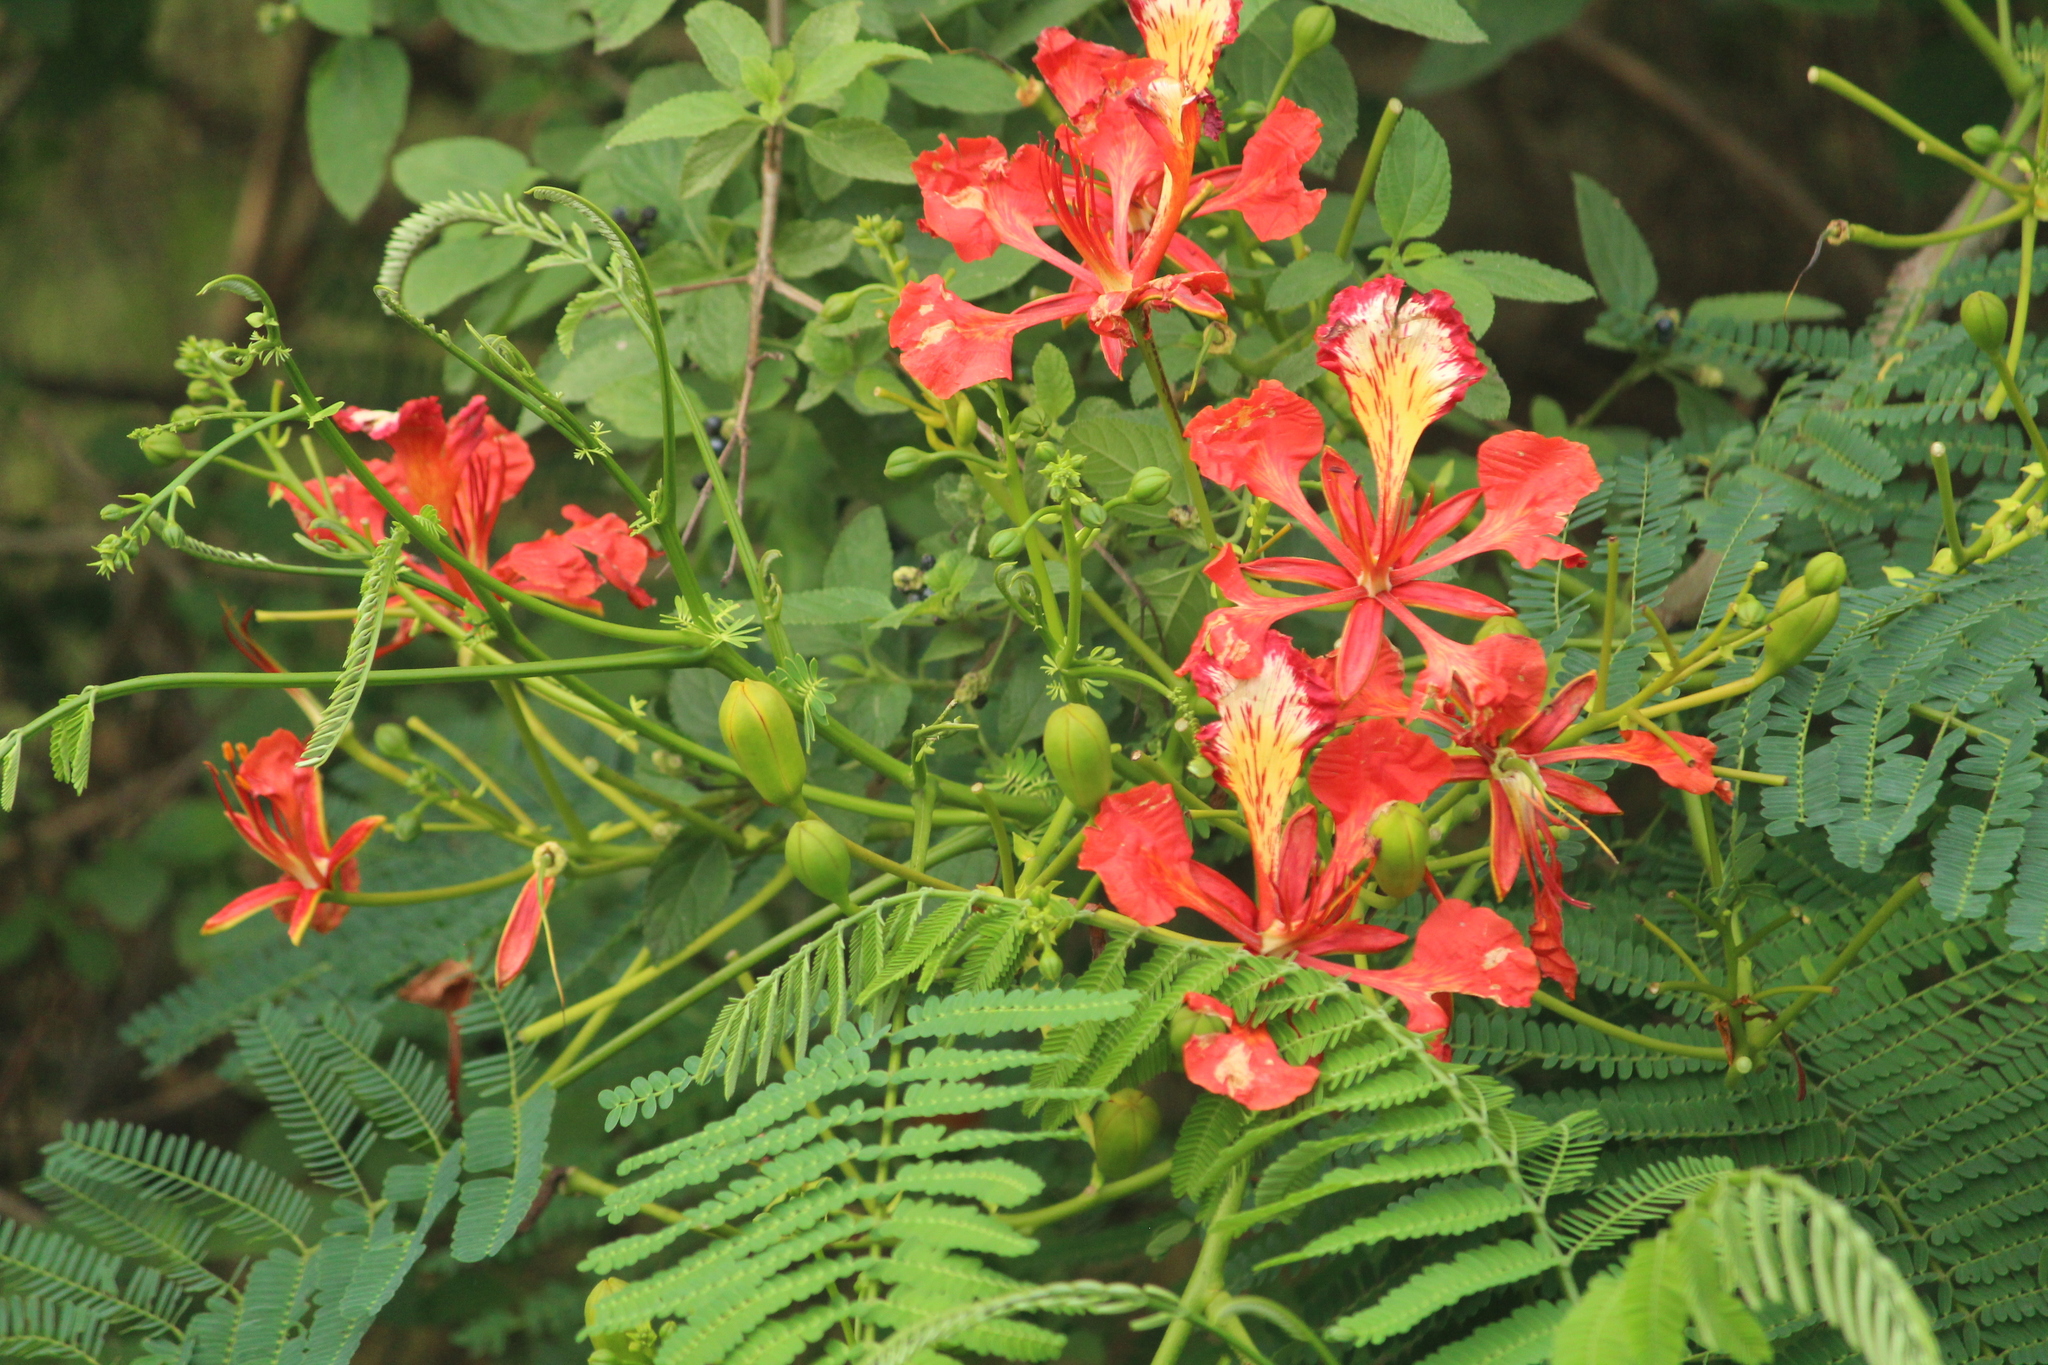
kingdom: Plantae
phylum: Tracheophyta
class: Magnoliopsida
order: Fabales
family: Fabaceae
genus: Delonix
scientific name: Delonix regia
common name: Royal poinciana
